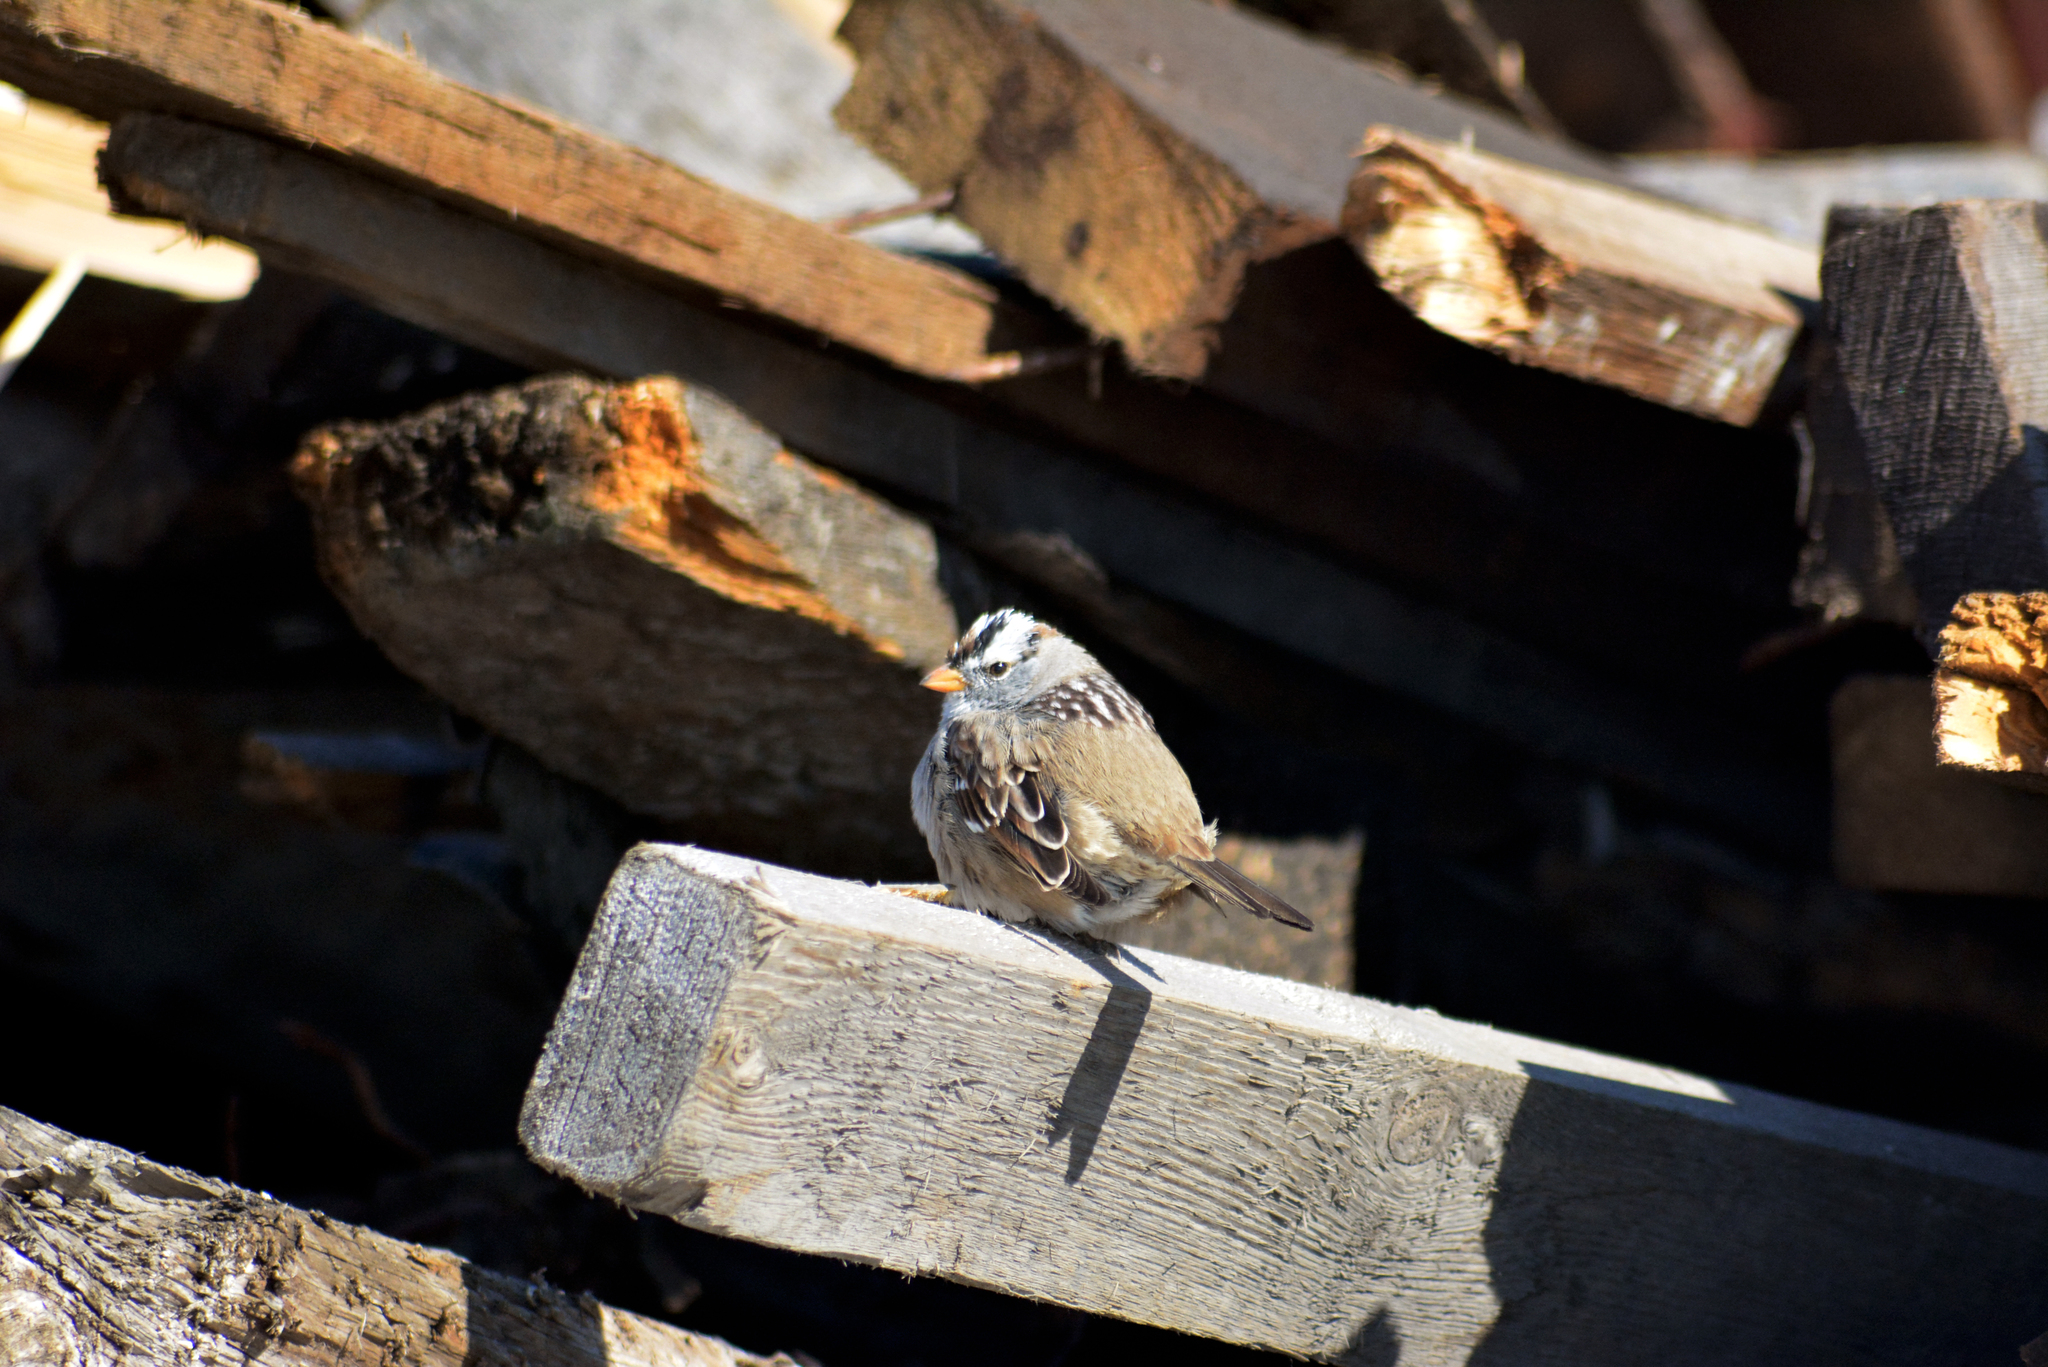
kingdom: Animalia
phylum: Chordata
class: Aves
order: Passeriformes
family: Passerellidae
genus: Zonotrichia
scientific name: Zonotrichia leucophrys
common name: White-crowned sparrow
